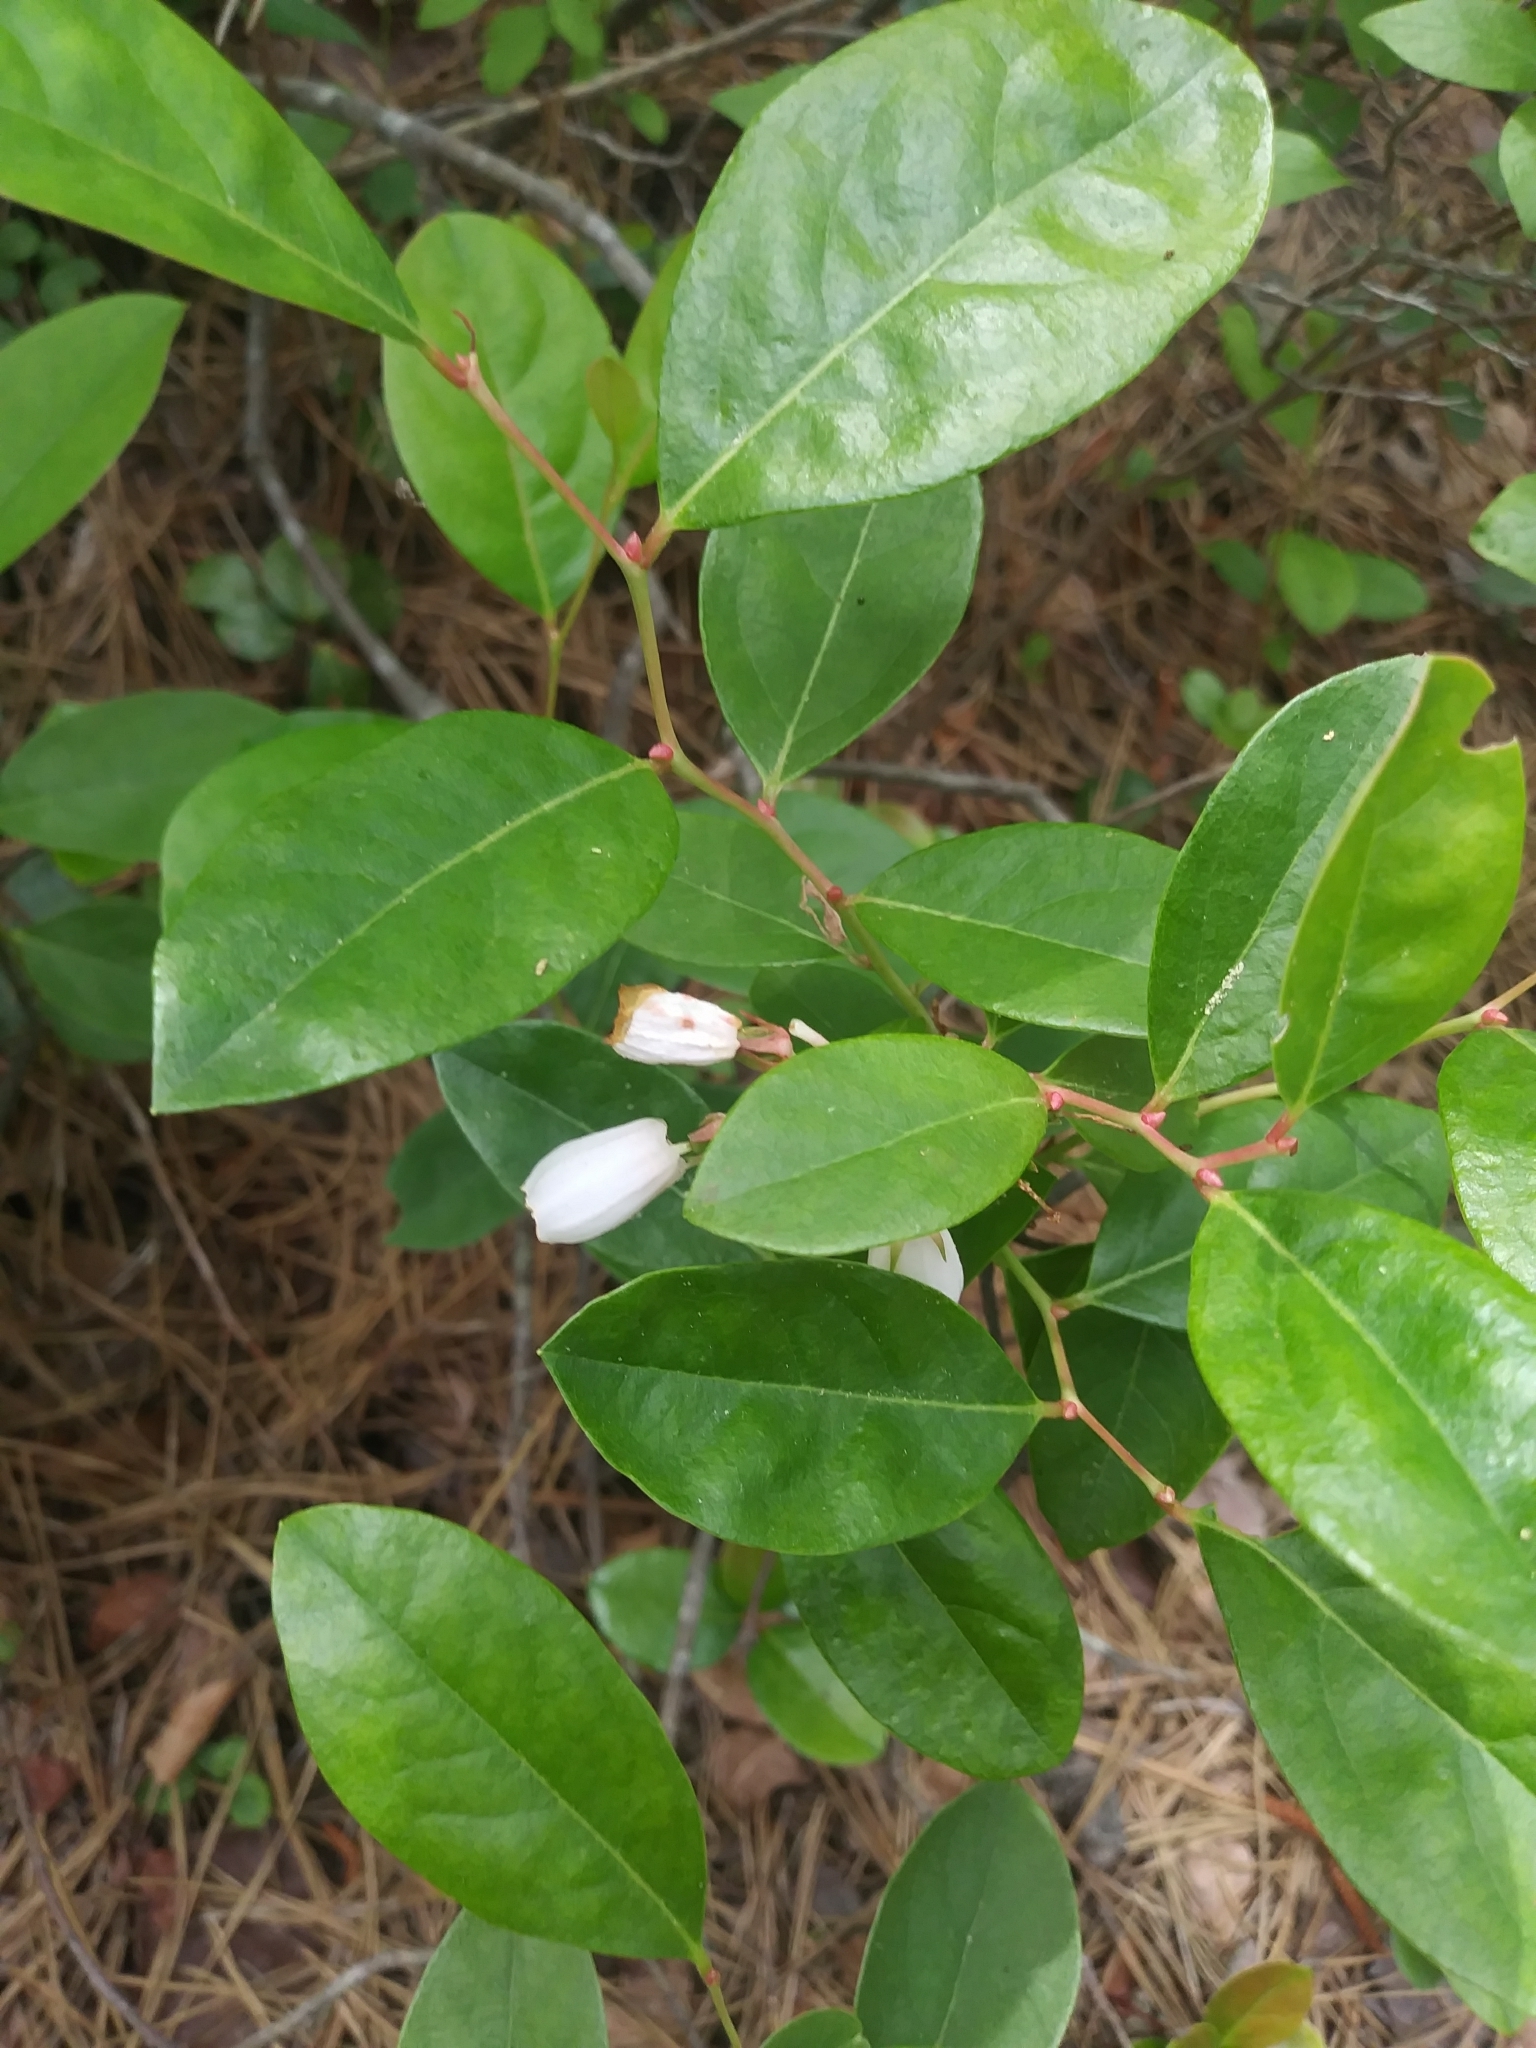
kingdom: Plantae
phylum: Tracheophyta
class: Magnoliopsida
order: Ericales
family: Ericaceae
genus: Lyonia
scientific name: Lyonia mariana
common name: Staggerbush
